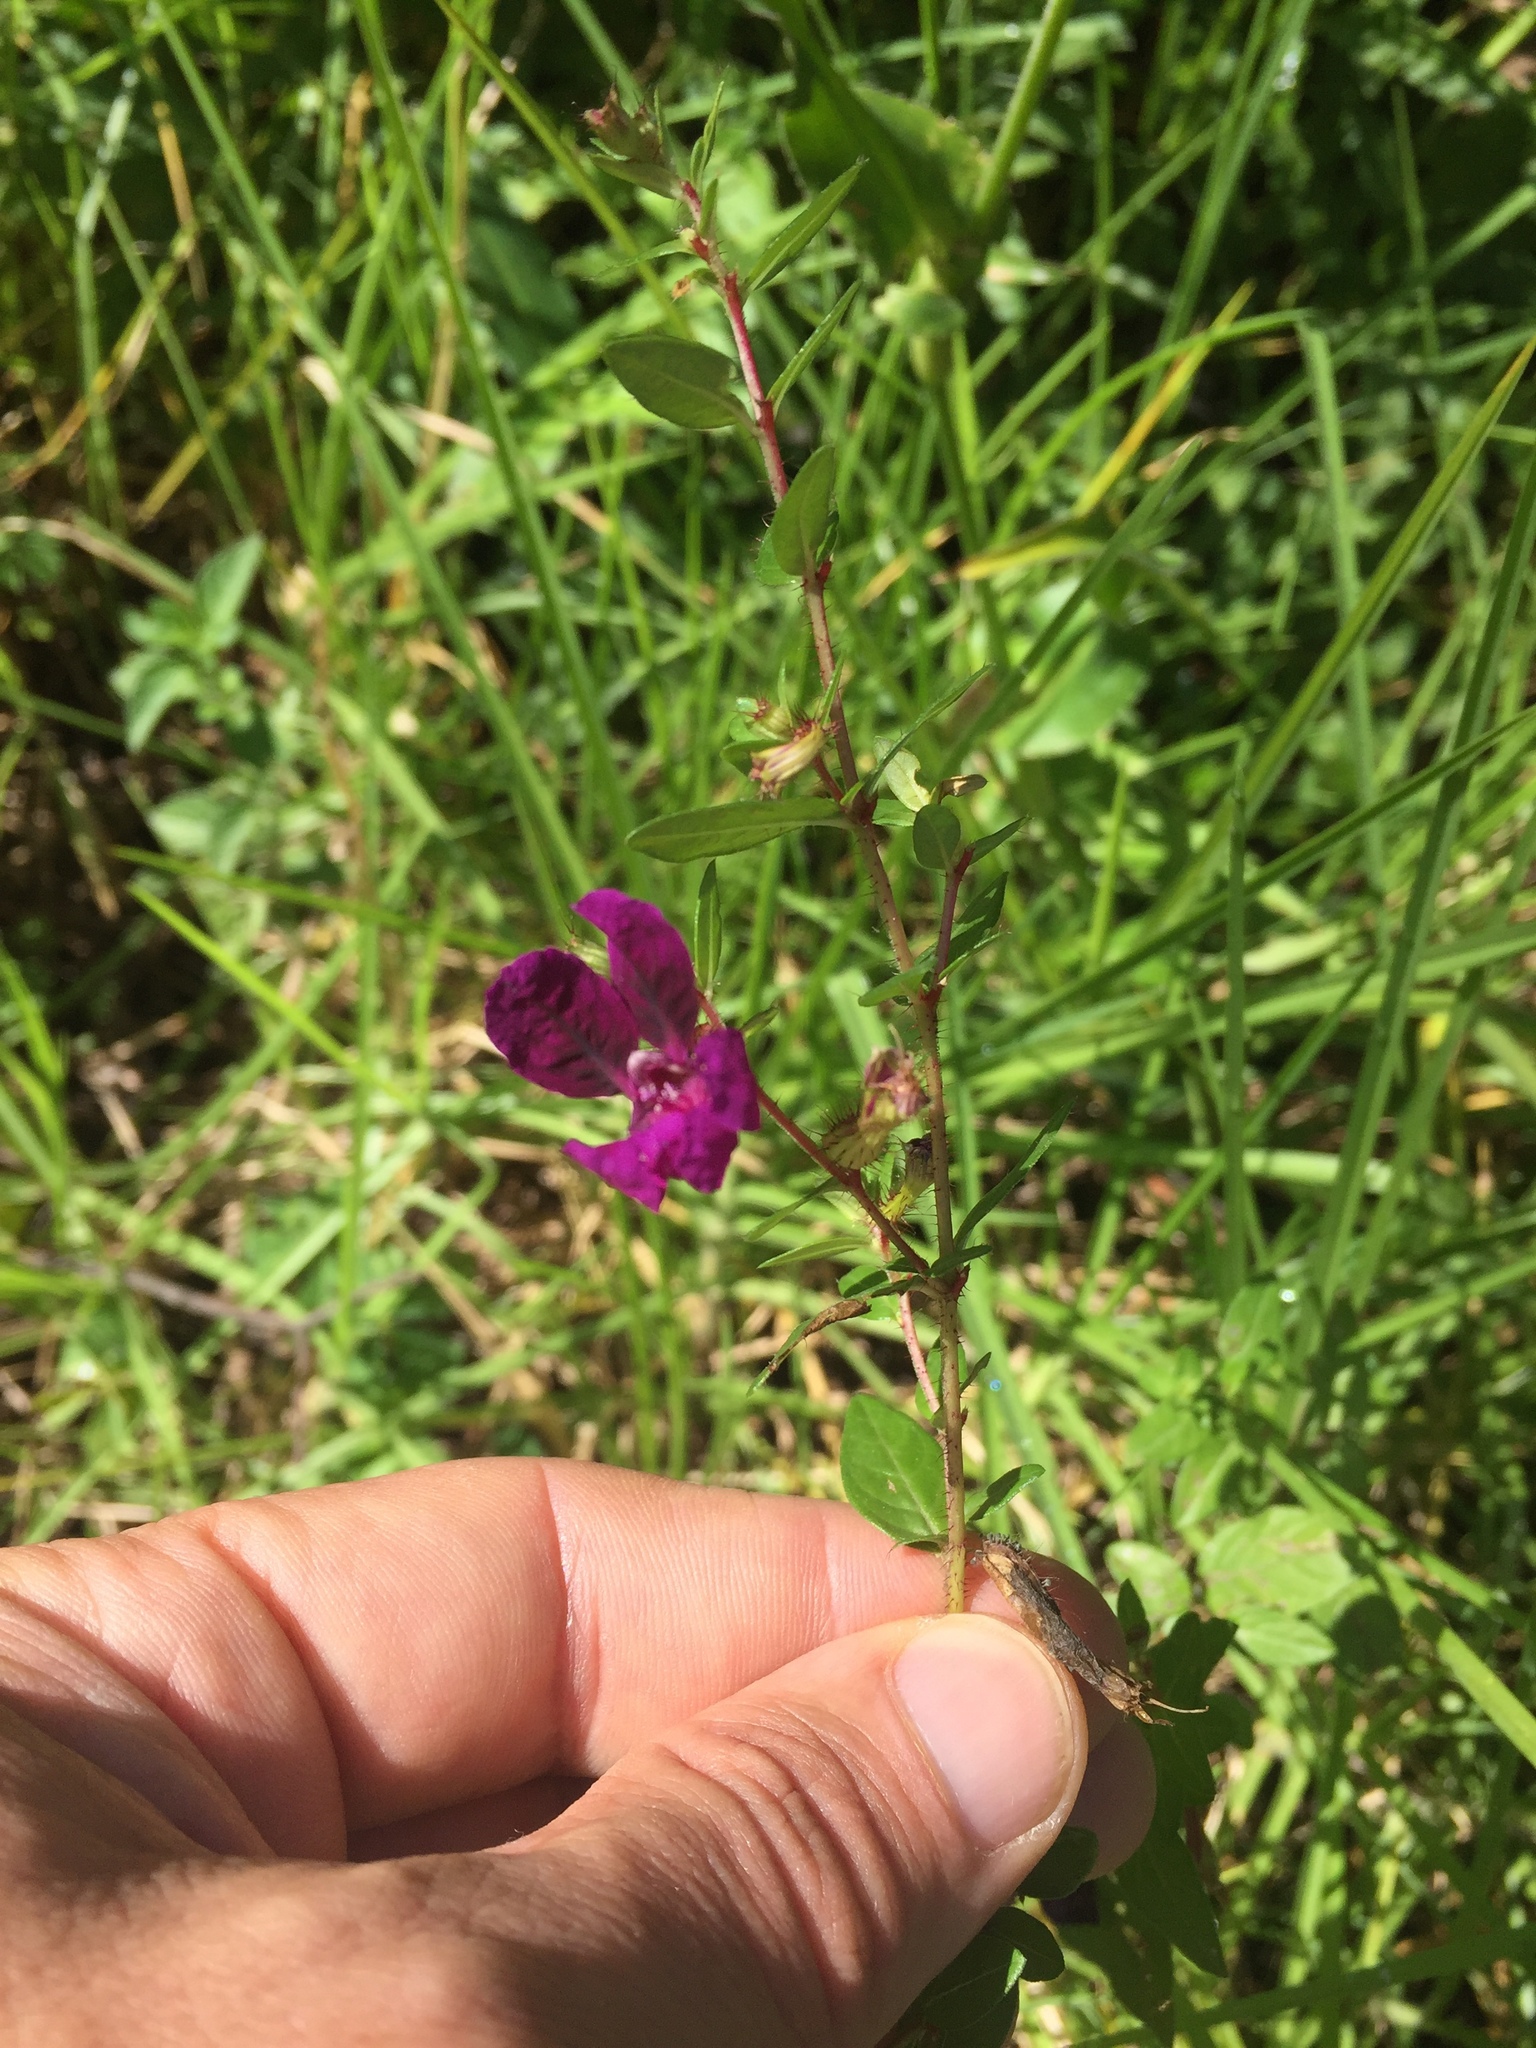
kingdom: Plantae
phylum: Tracheophyta
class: Magnoliopsida
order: Myrtales
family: Lythraceae
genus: Cuphea
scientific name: Cuphea aequipetala
